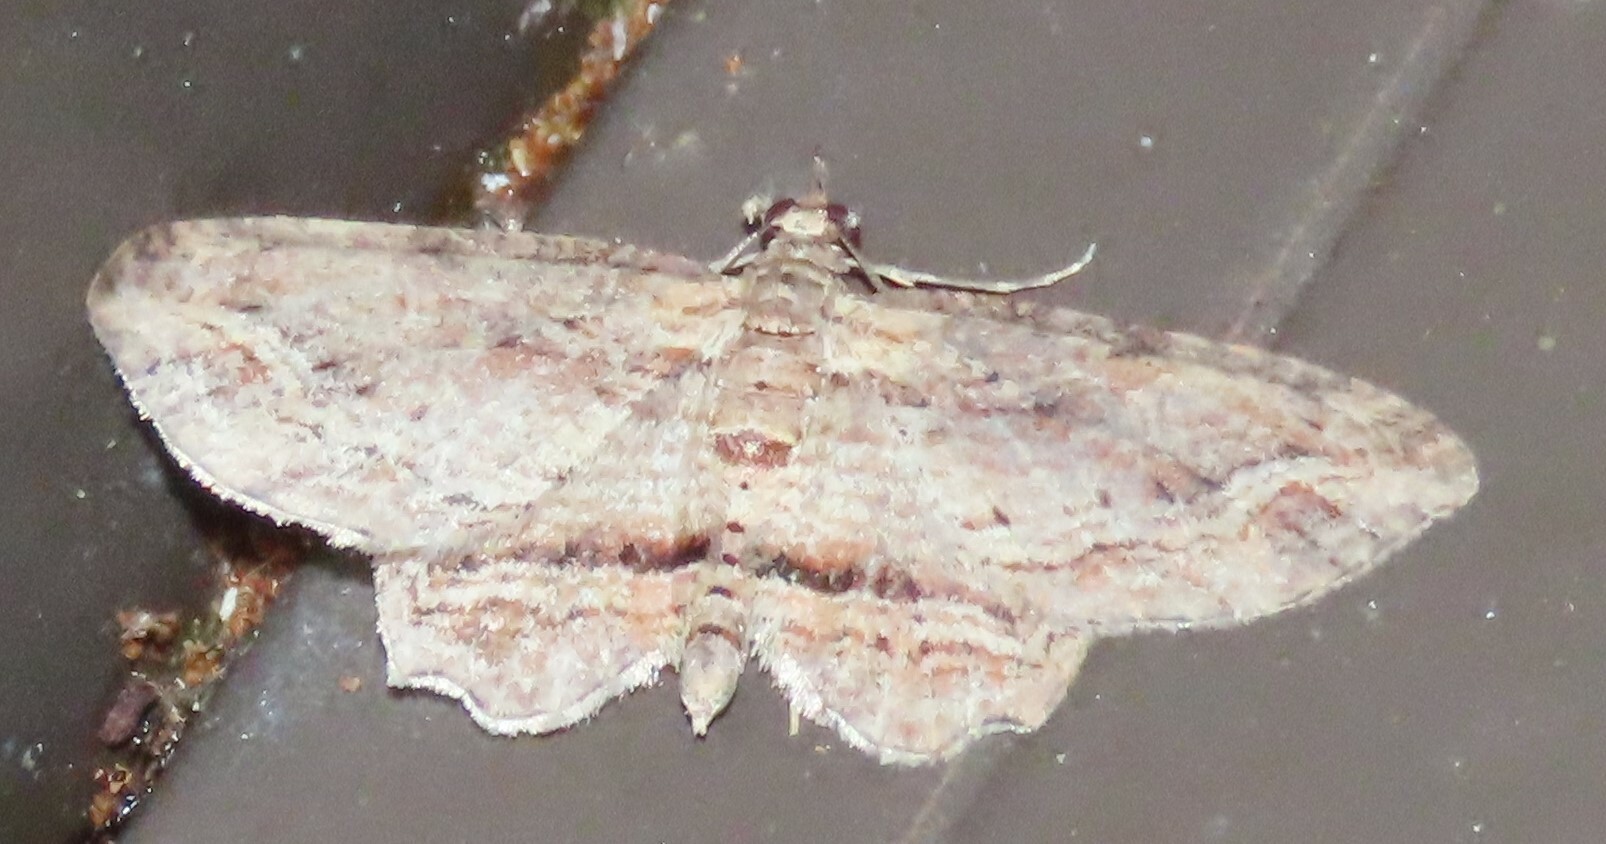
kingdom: Animalia
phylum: Arthropoda
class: Insecta
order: Lepidoptera
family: Geometridae
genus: Chloroclystis
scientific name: Chloroclystis filata
